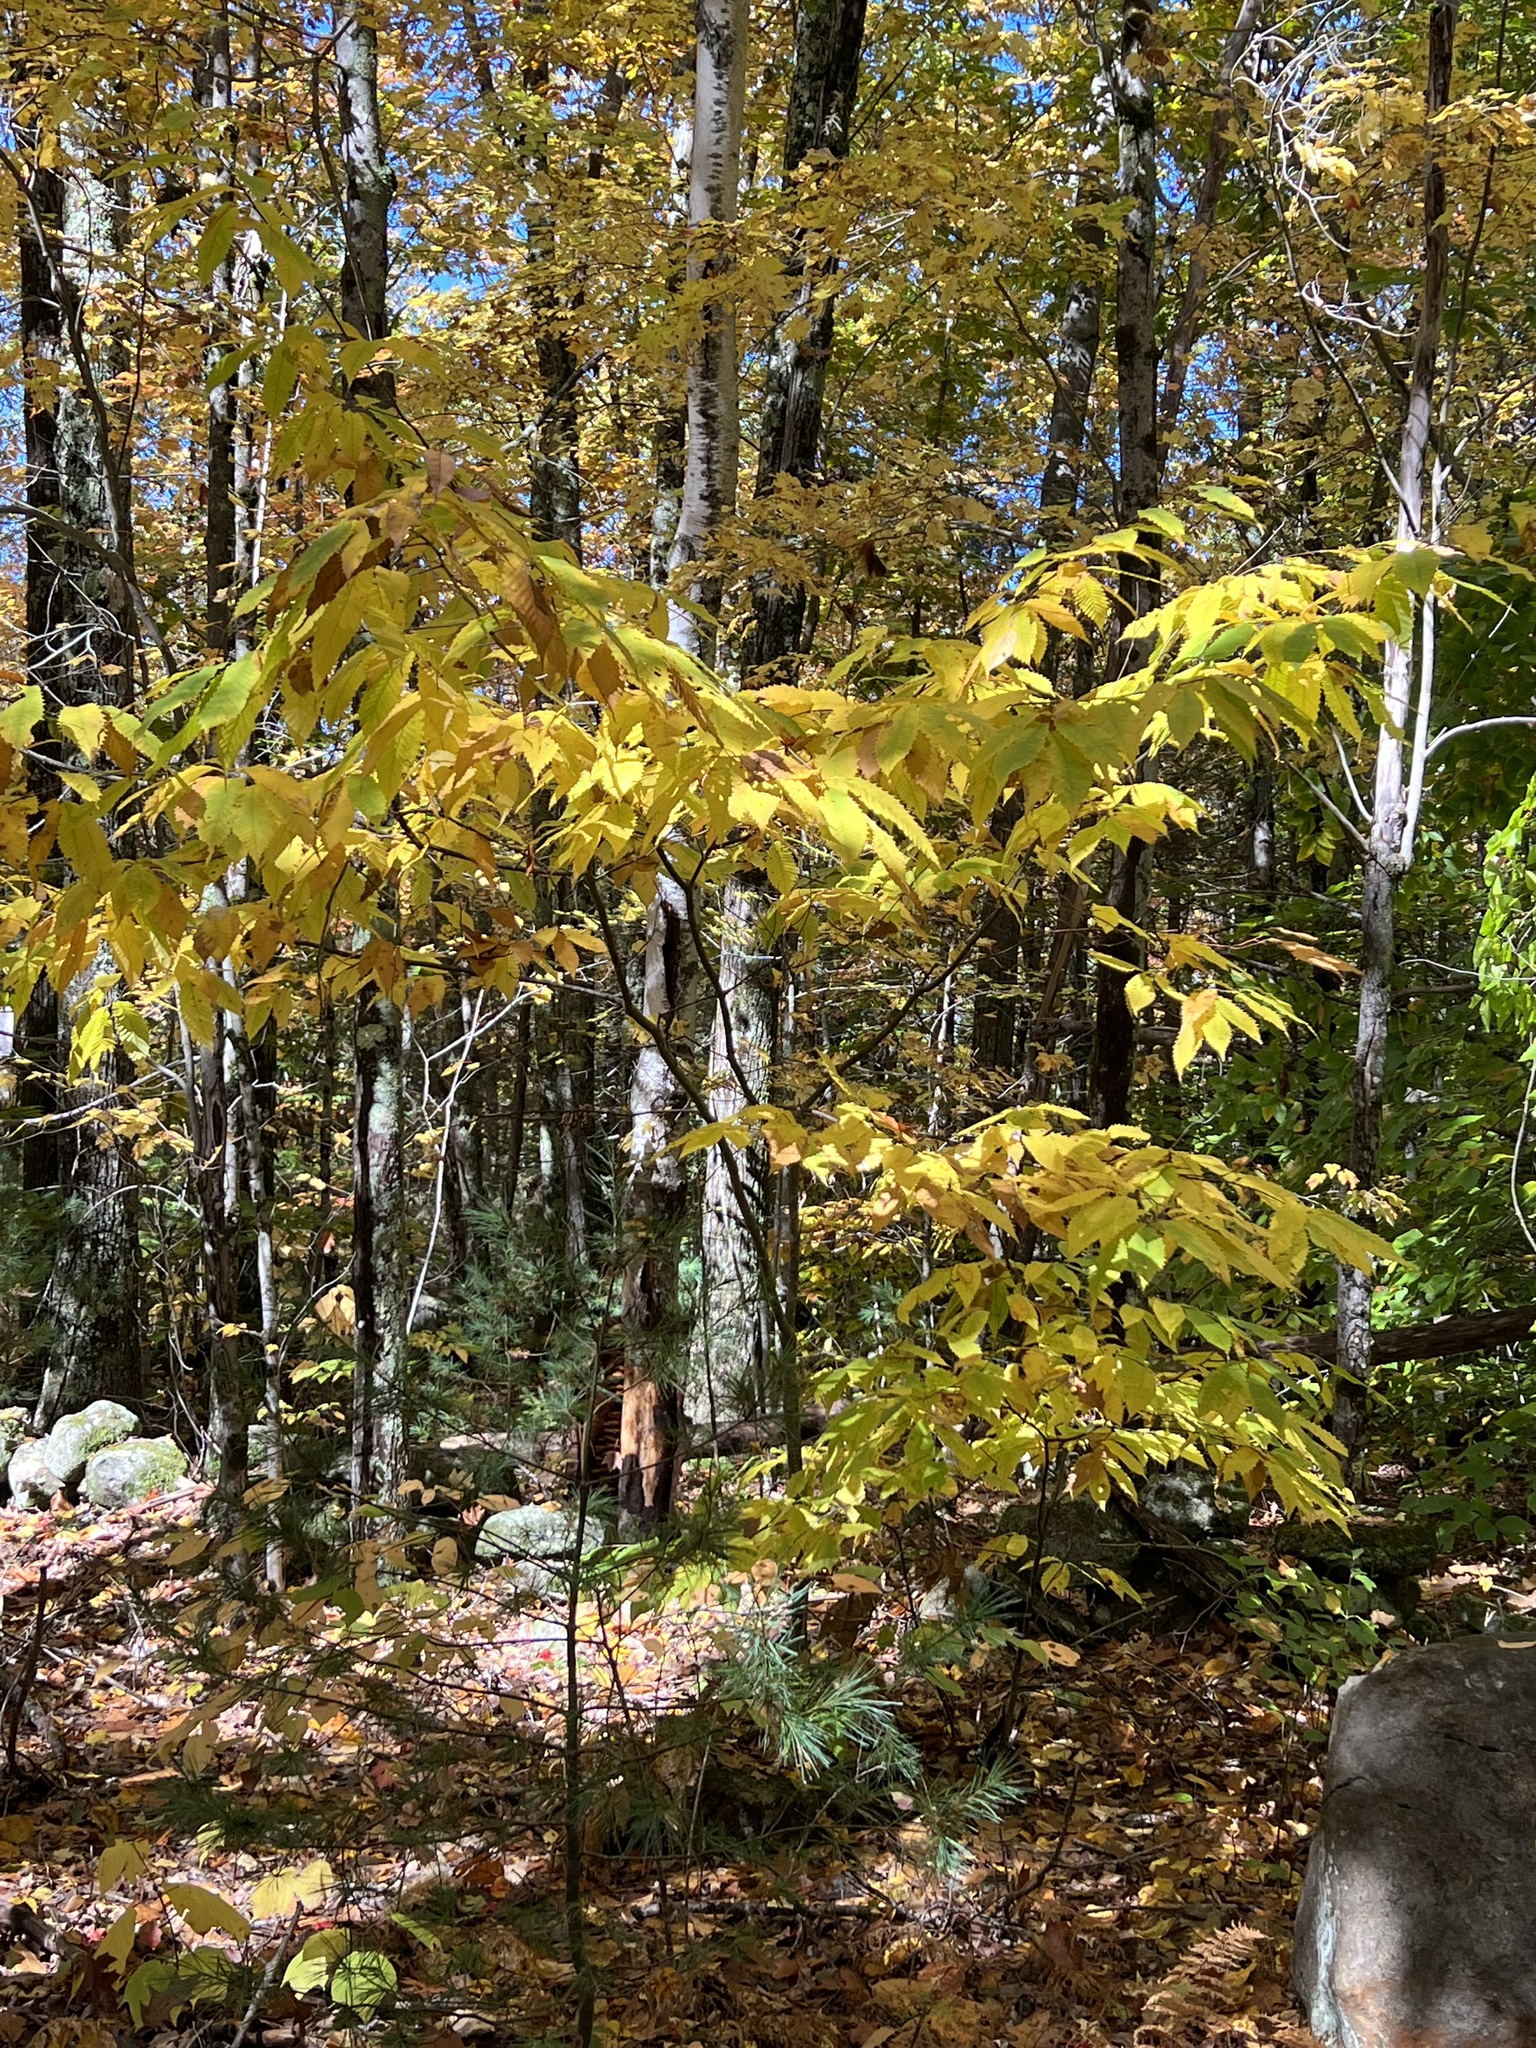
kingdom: Plantae
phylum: Tracheophyta
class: Magnoliopsida
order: Fagales
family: Fagaceae
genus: Castanea
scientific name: Castanea dentata
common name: American chestnut
